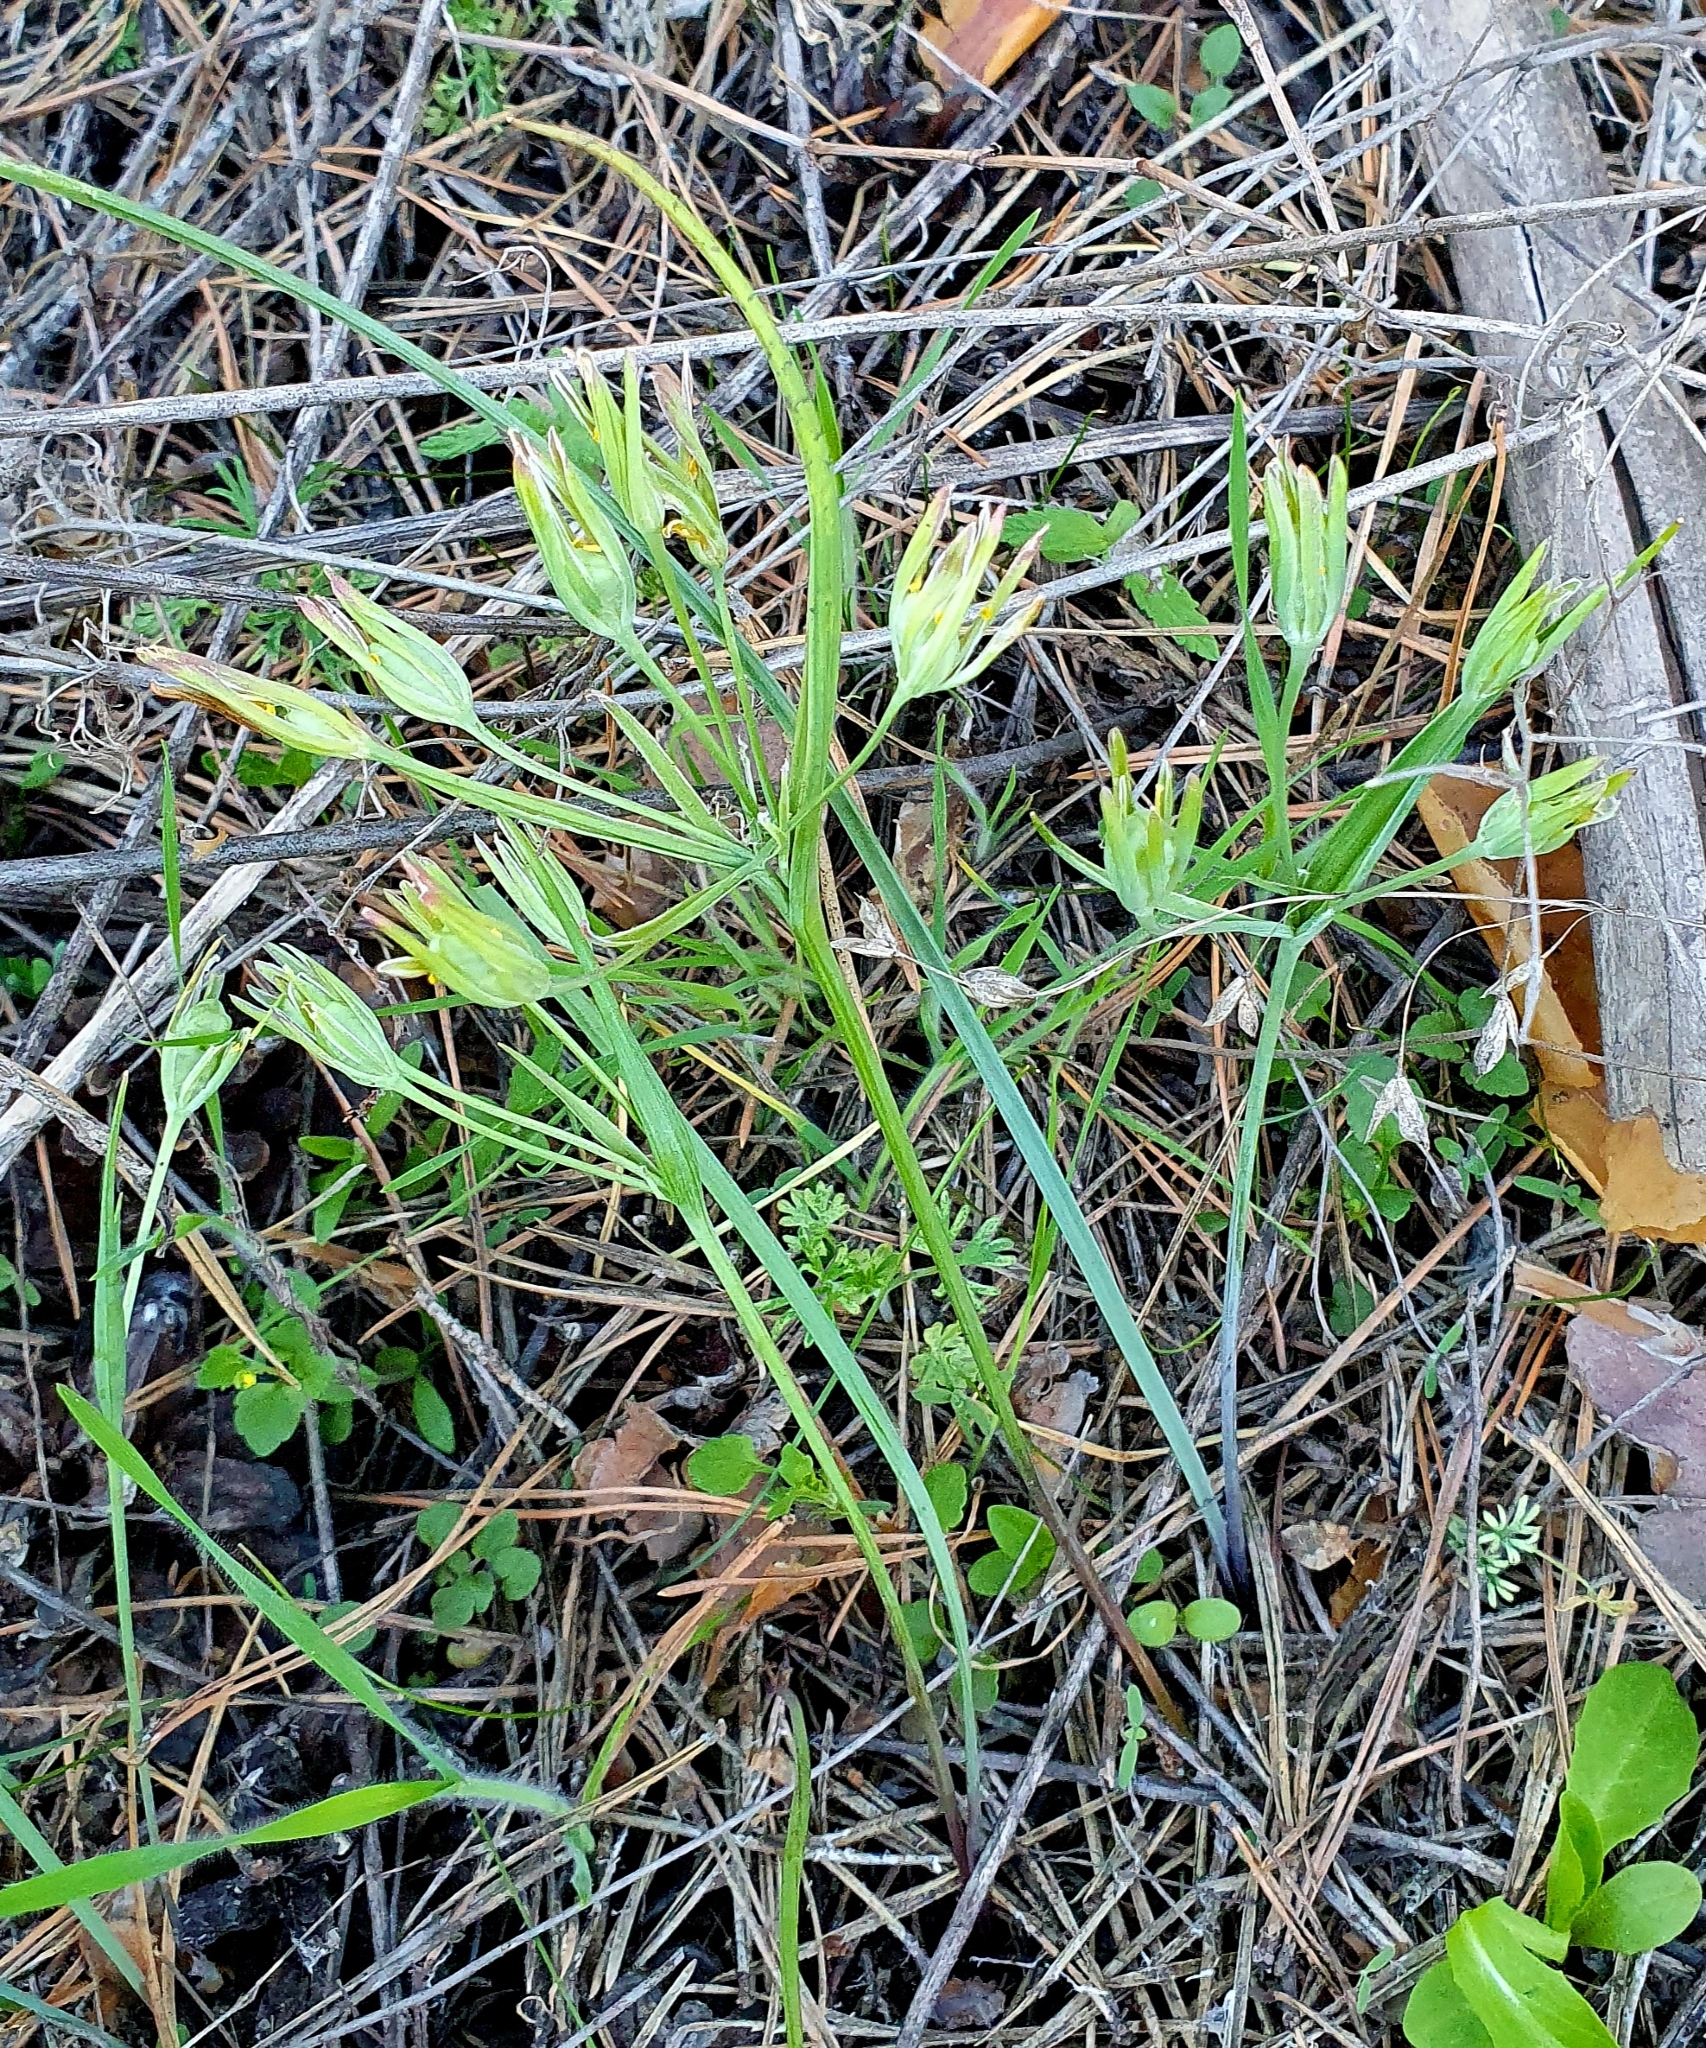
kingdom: Plantae
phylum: Tracheophyta
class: Liliopsida
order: Liliales
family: Liliaceae
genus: Gagea
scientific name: Gagea fragifera
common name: Lily
